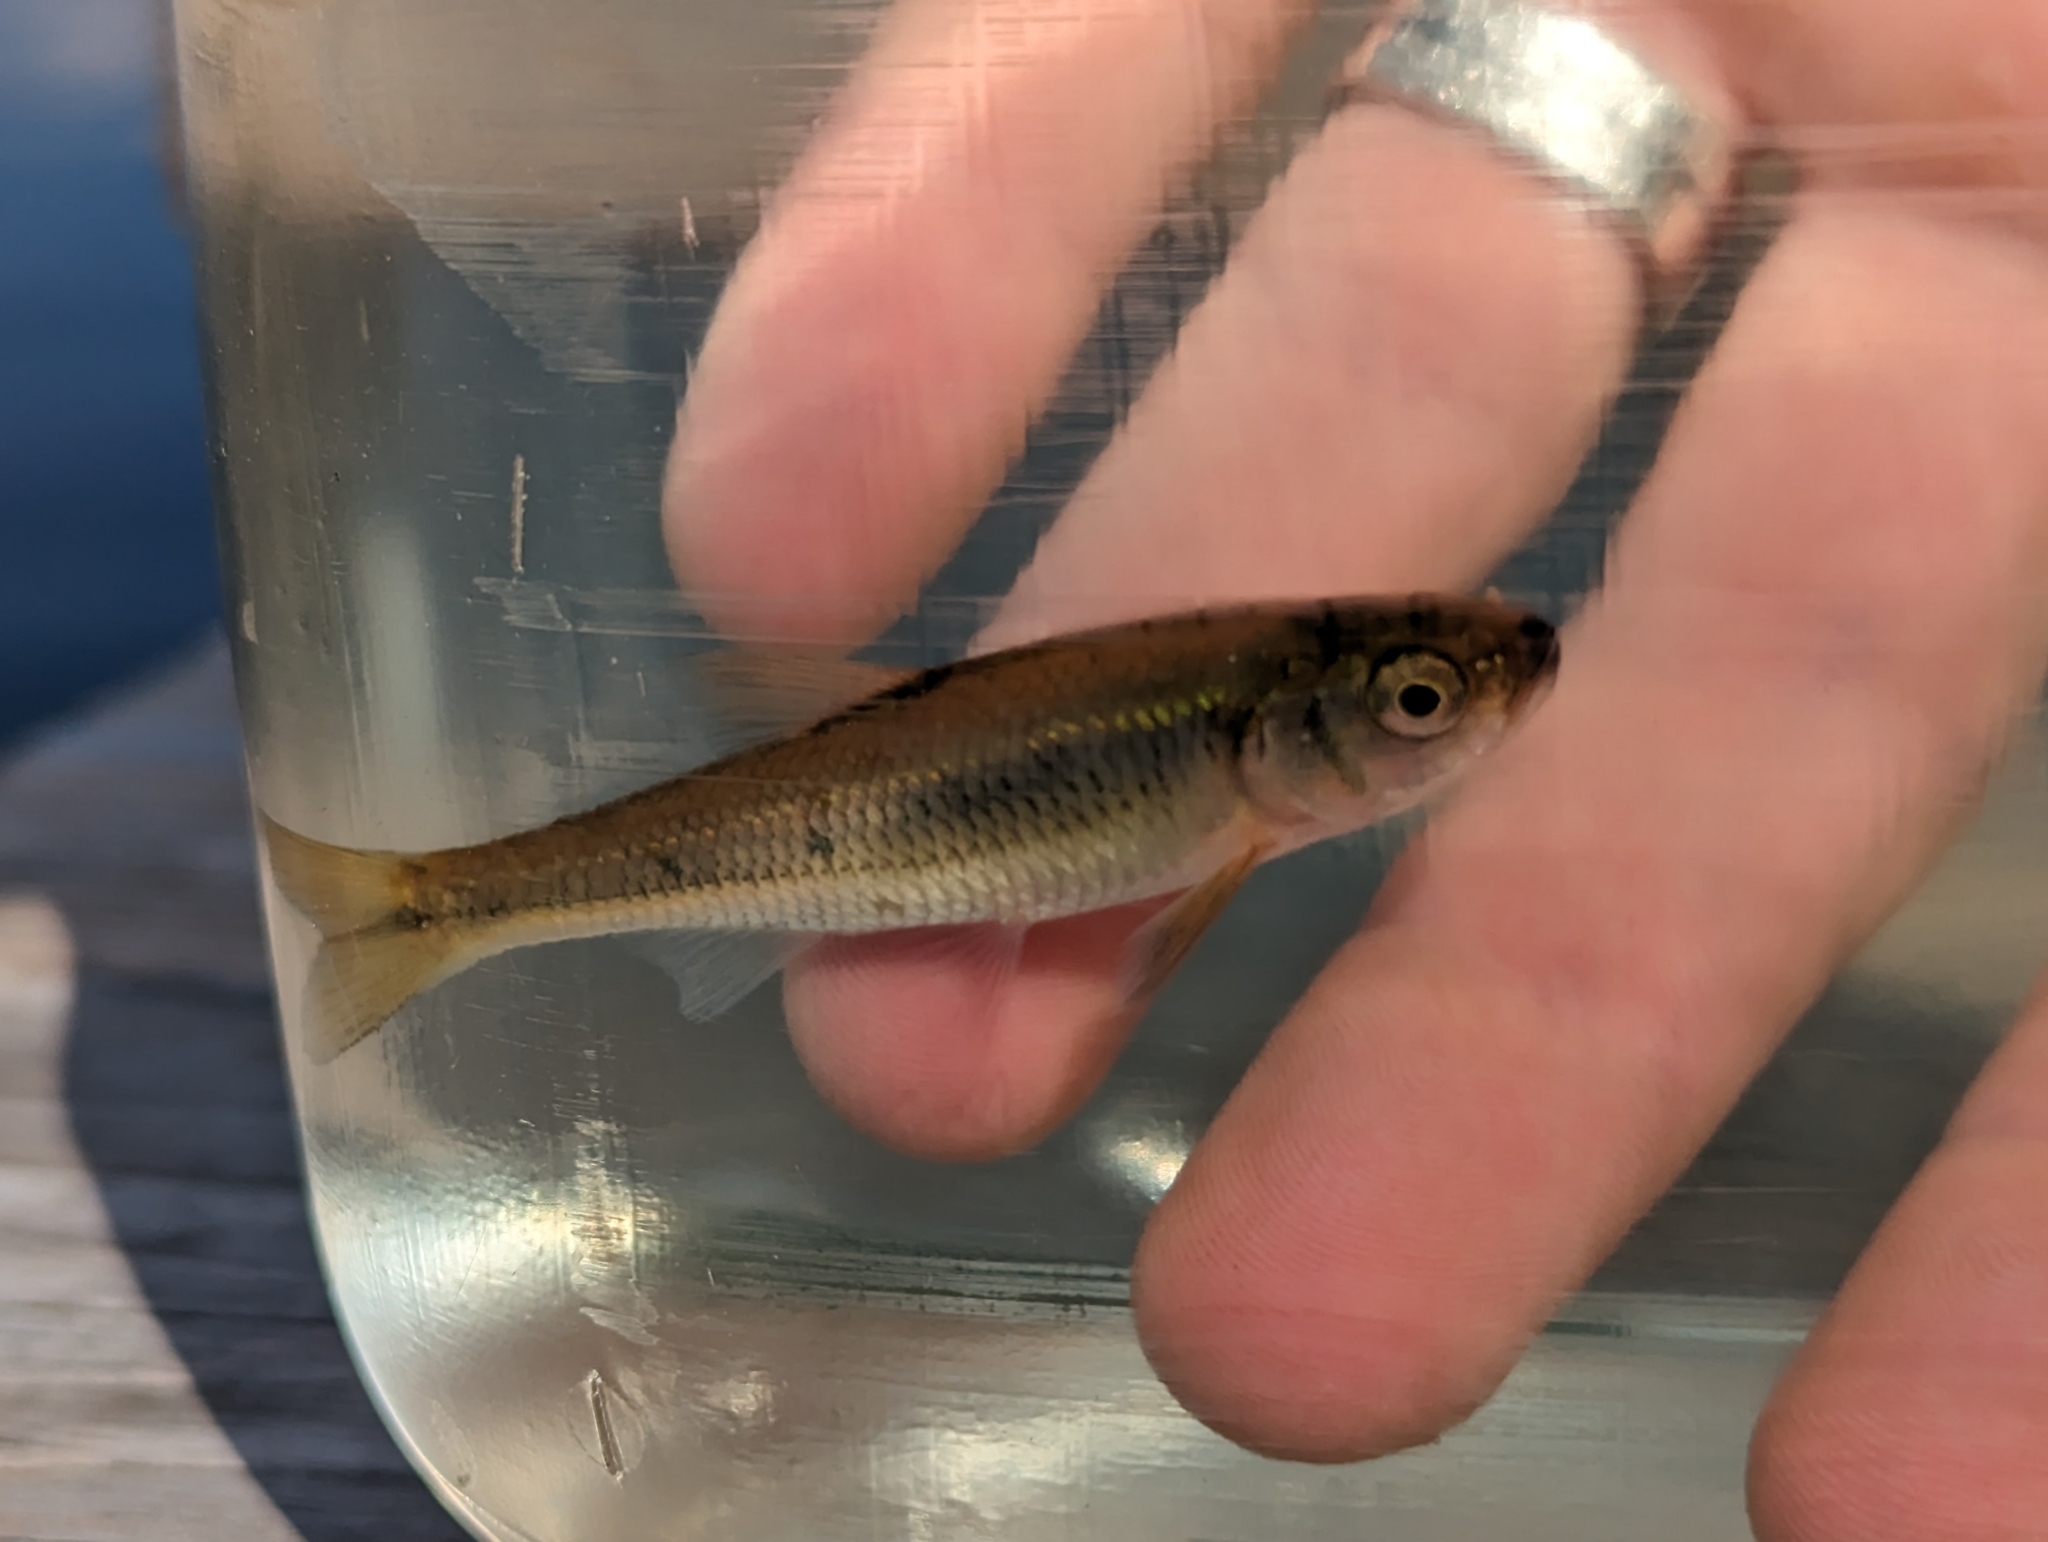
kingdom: Animalia
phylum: Chordata
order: Cypriniformes
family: Cyprinidae
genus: Luxilus
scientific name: Luxilus cornutus
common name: Common shiner
